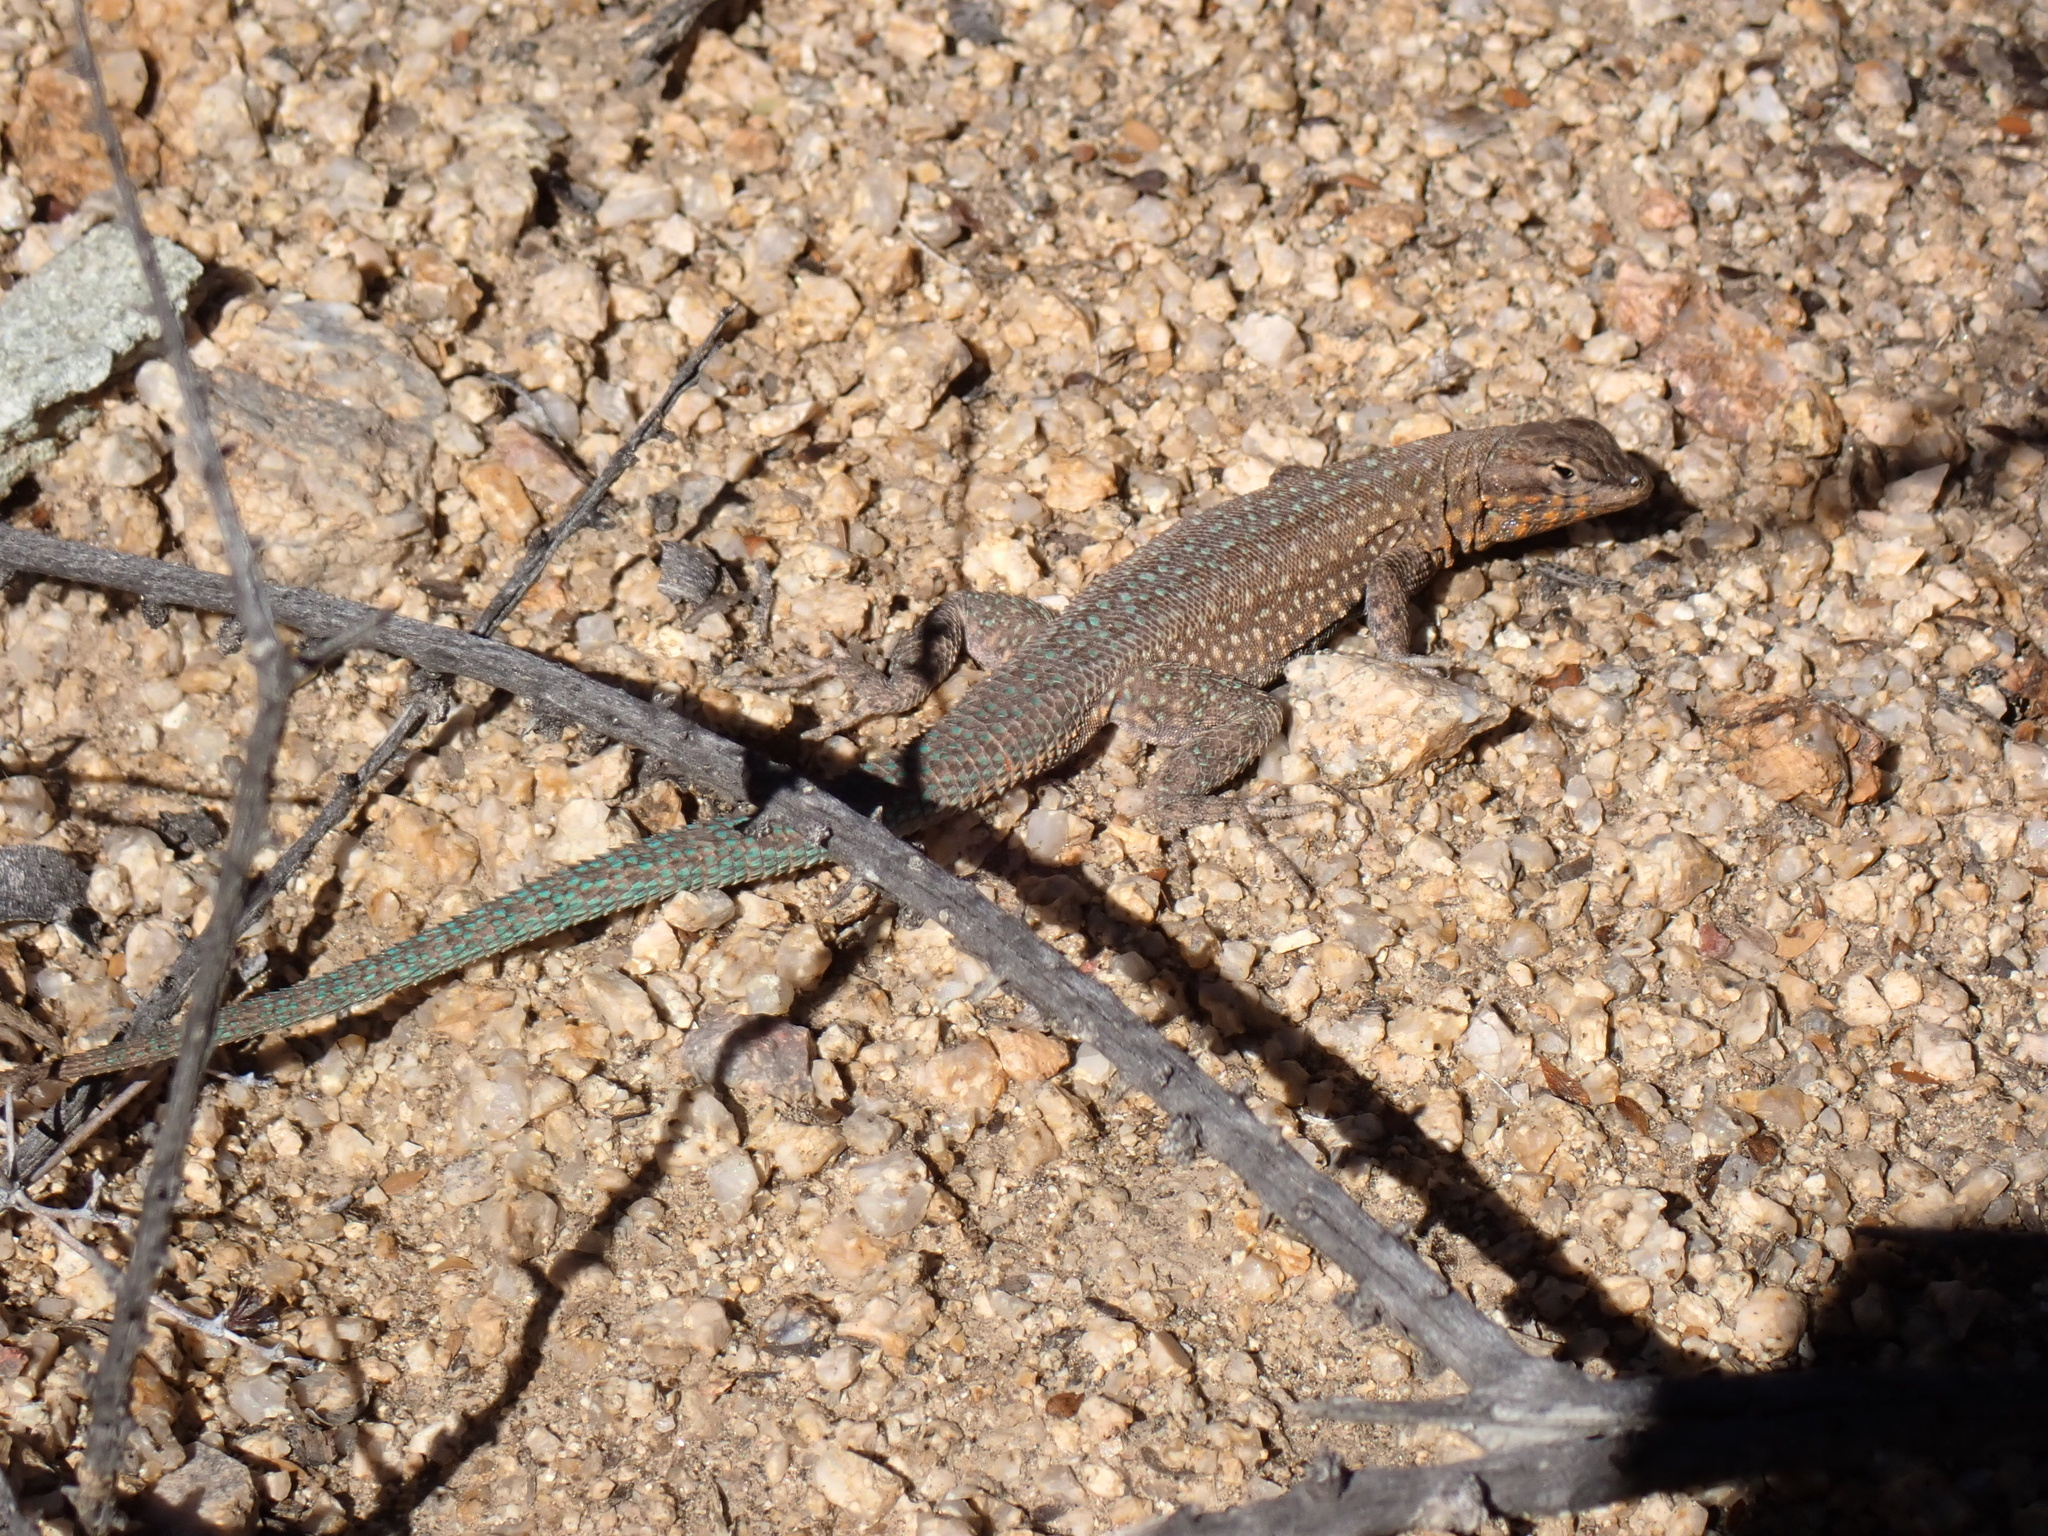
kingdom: Animalia
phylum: Chordata
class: Squamata
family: Phrynosomatidae
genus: Uta
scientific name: Uta stansburiana
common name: Side-blotched lizard
